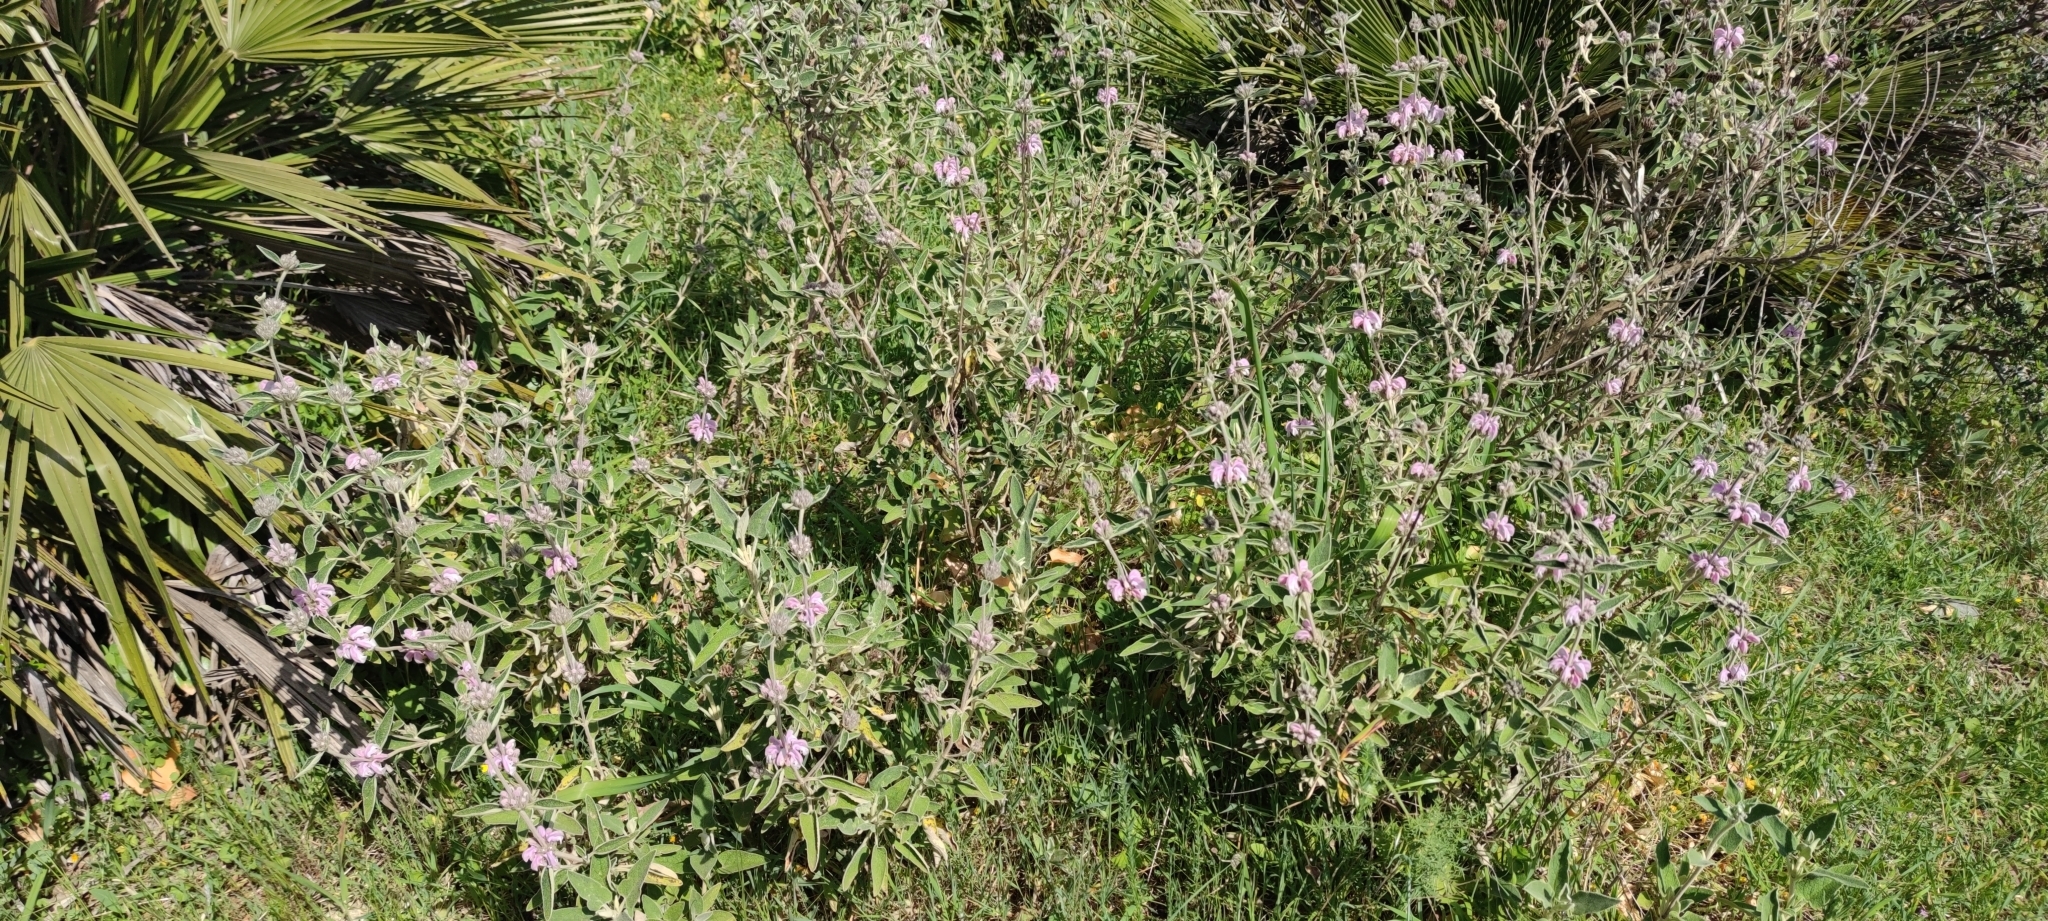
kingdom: Plantae
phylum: Tracheophyta
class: Magnoliopsida
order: Lamiales
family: Lamiaceae
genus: Phlomis
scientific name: Phlomis purpurea
